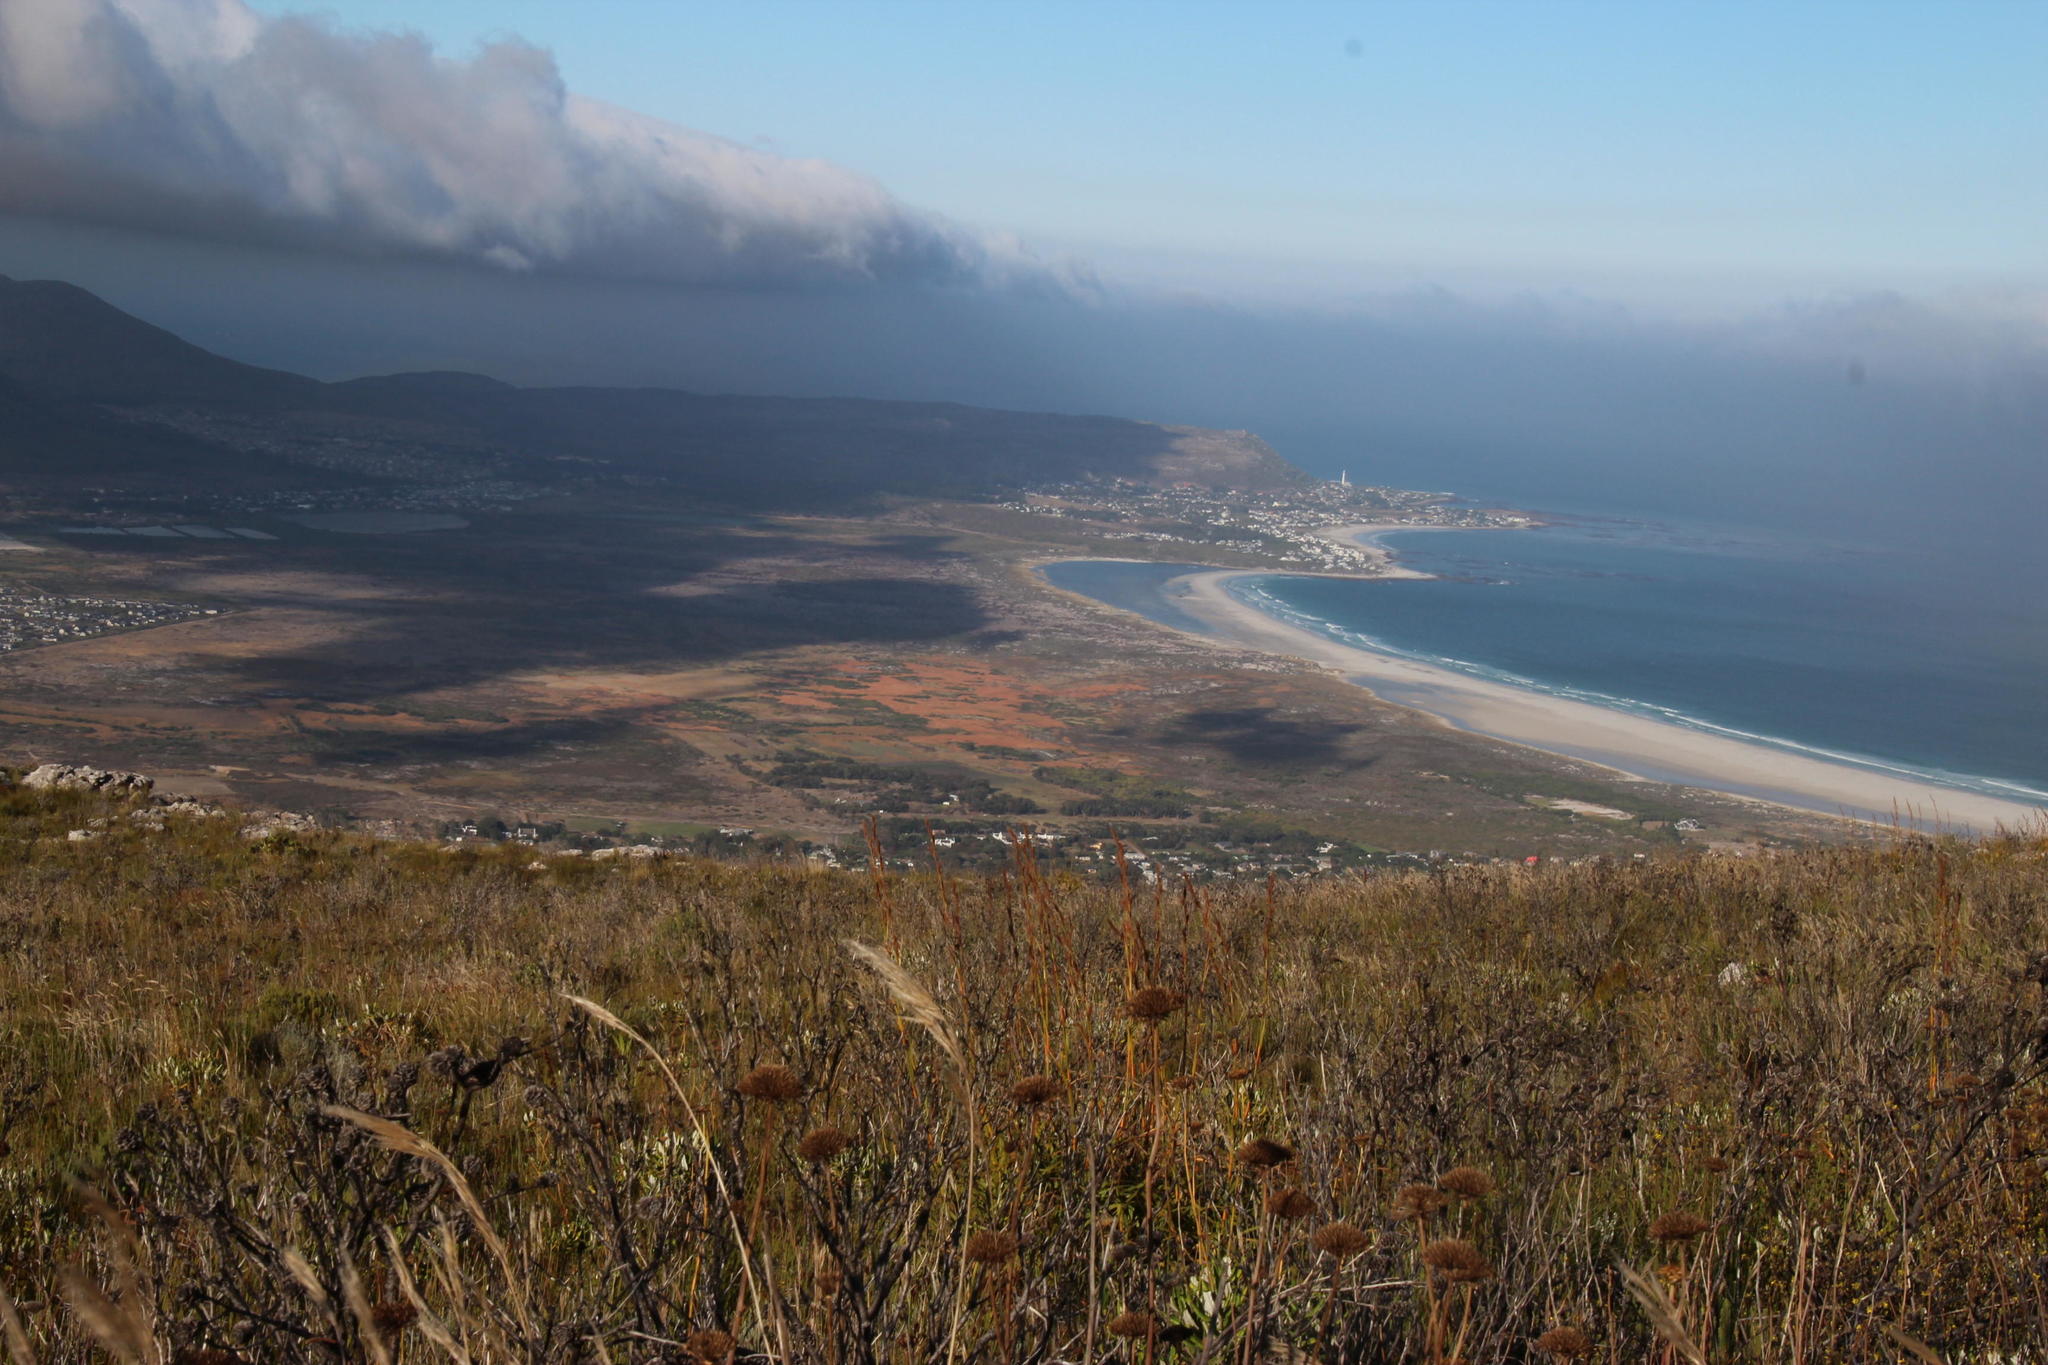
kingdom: Plantae
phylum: Tracheophyta
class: Liliopsida
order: Poales
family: Typhaceae
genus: Typha
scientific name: Typha capensis
